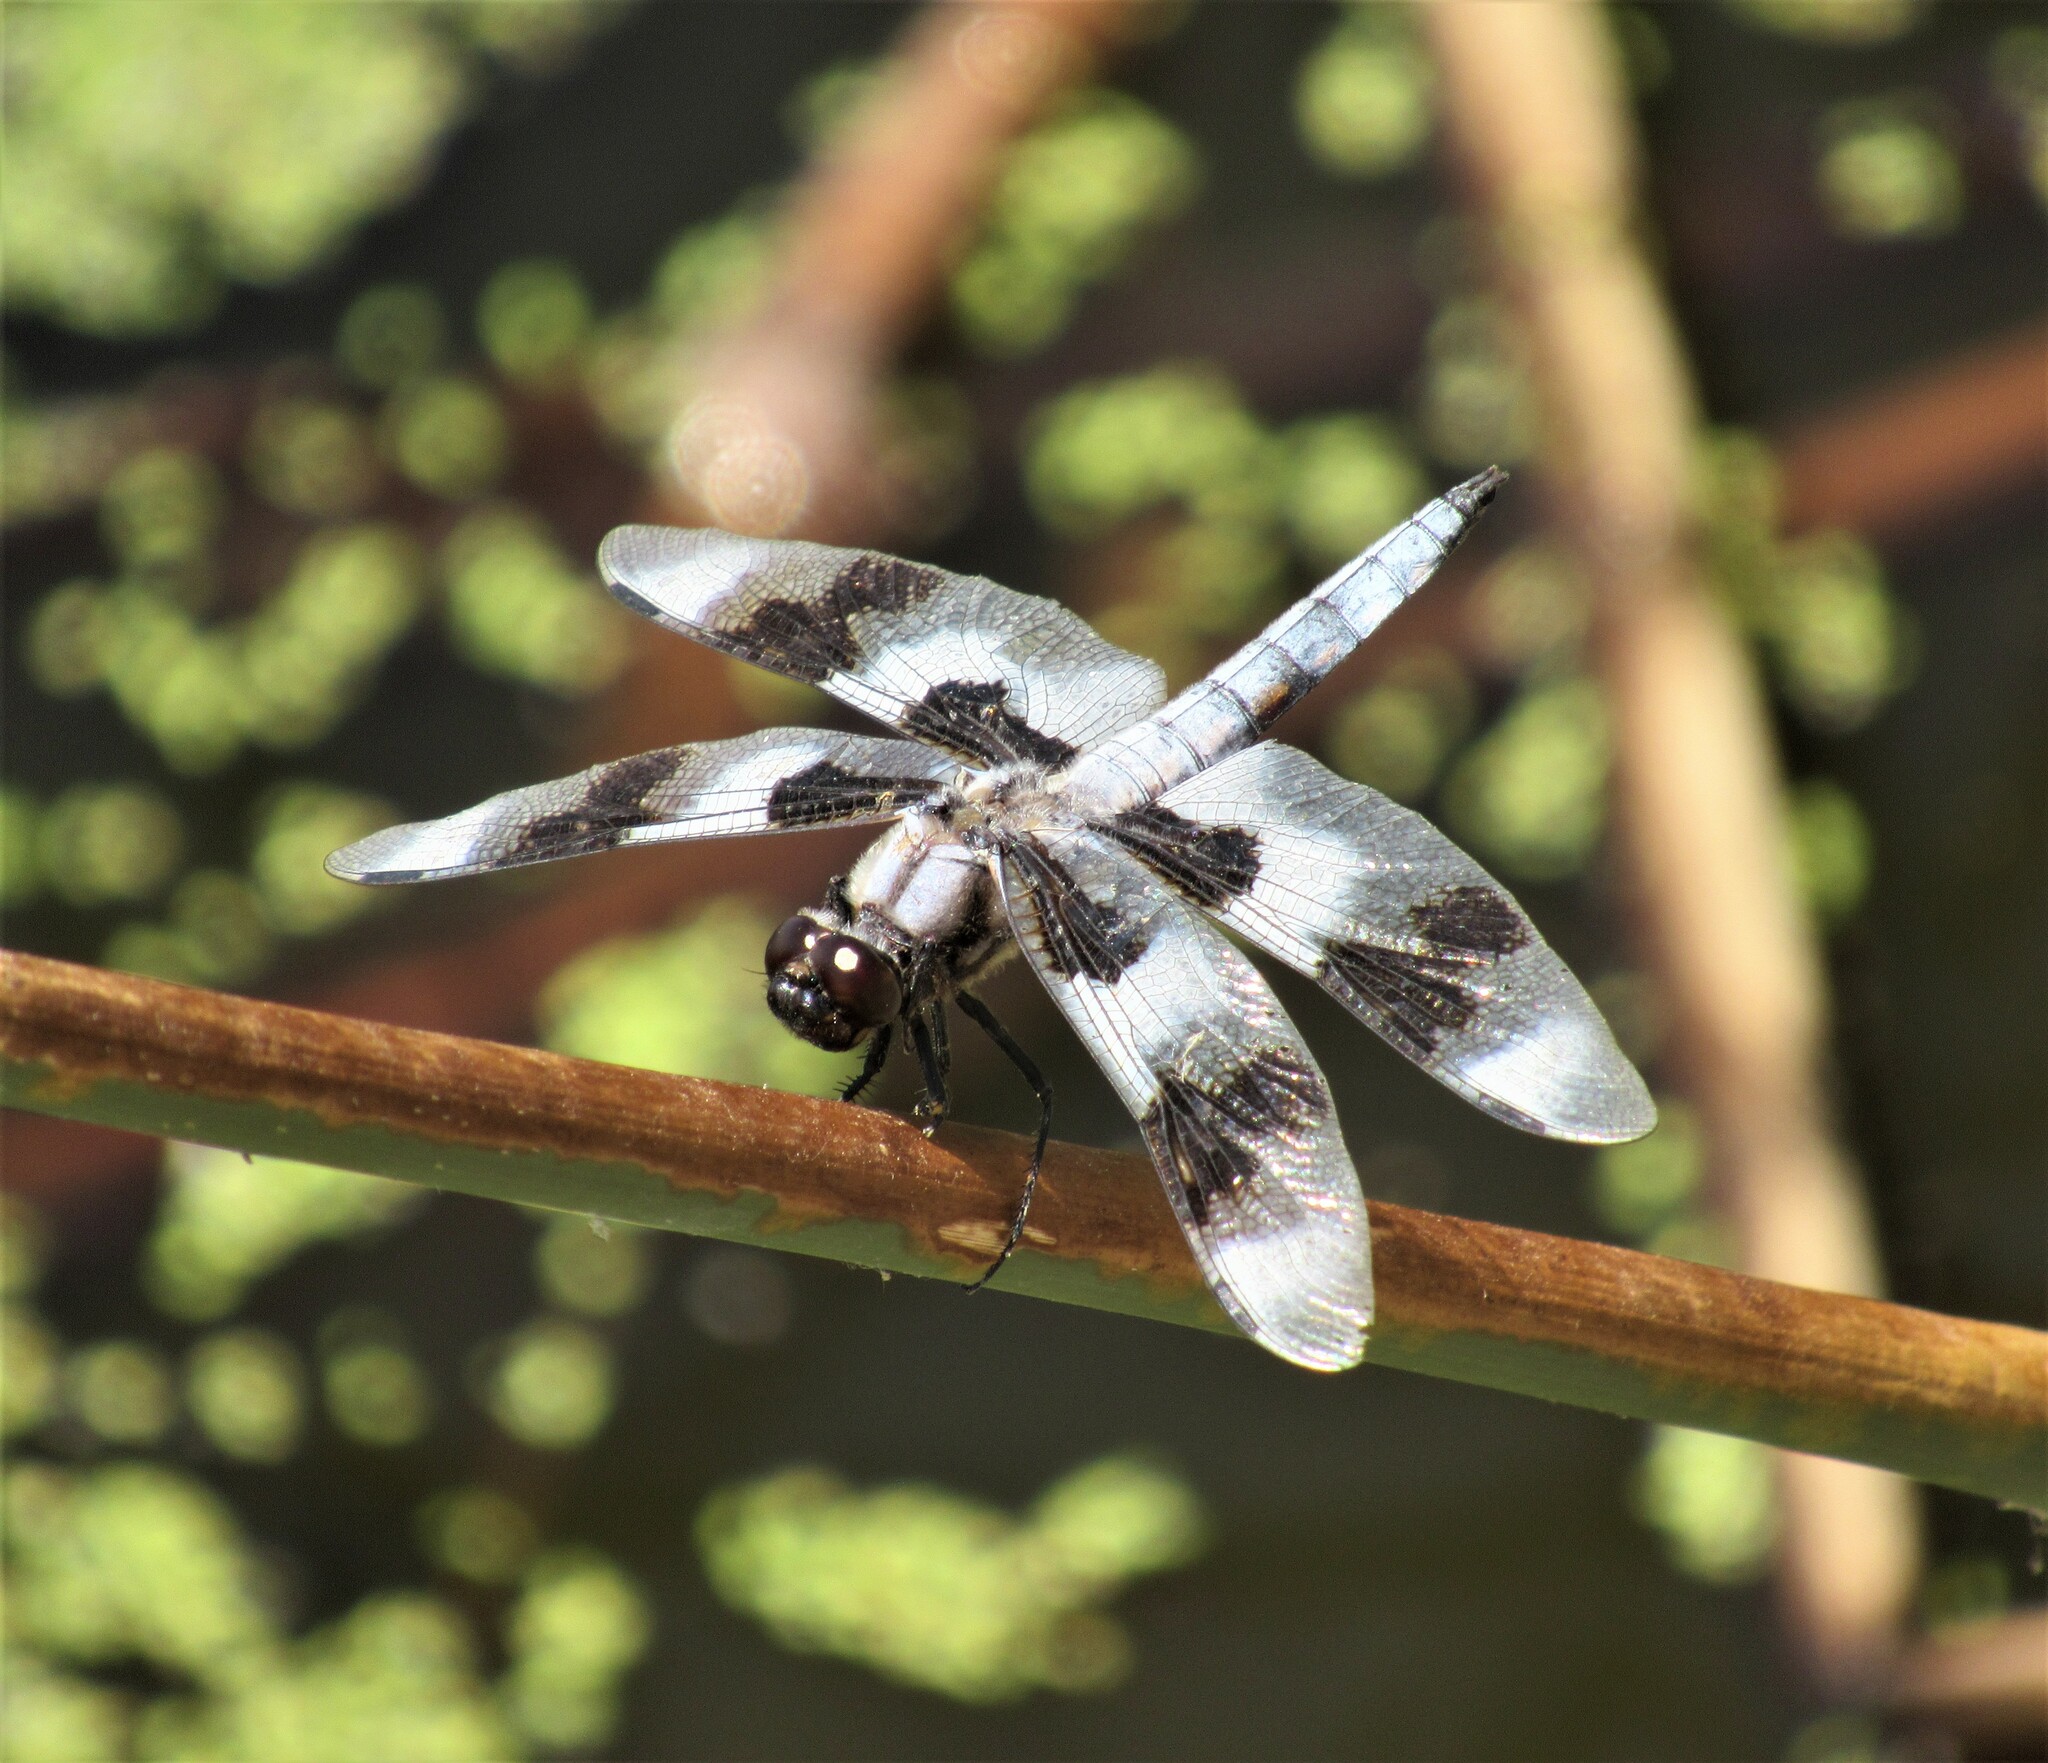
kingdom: Animalia
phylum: Arthropoda
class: Insecta
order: Odonata
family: Libellulidae
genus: Libellula
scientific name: Libellula forensis
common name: Eight-spotted skimmer
